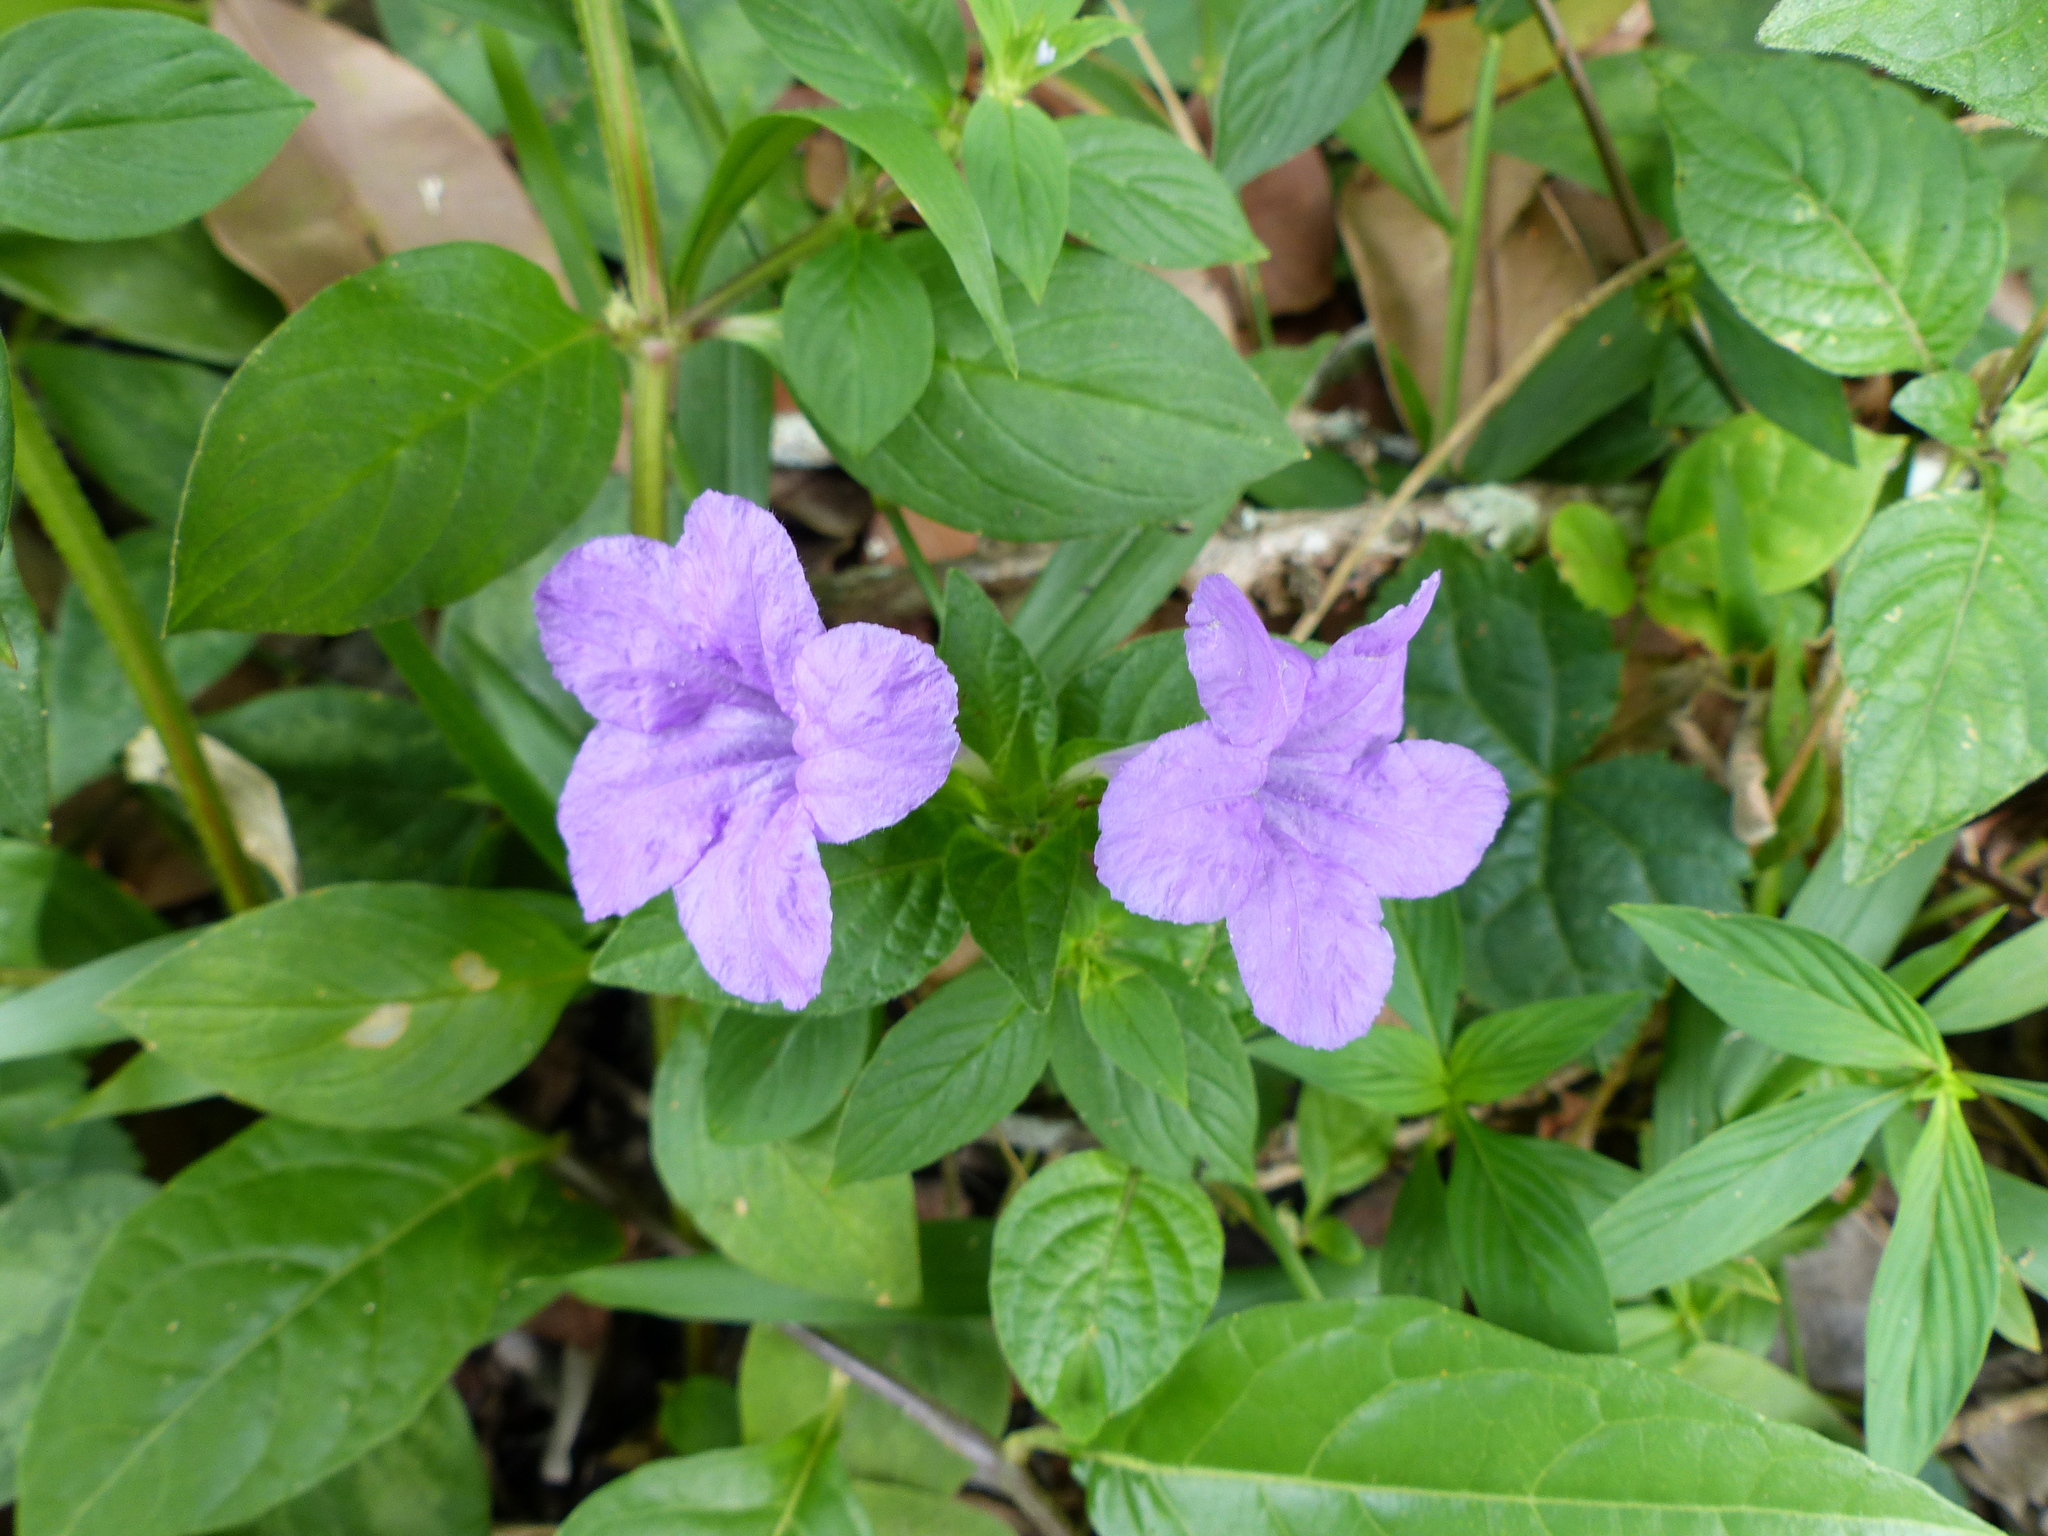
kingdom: Plantae
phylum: Tracheophyta
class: Magnoliopsida
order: Lamiales
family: Acanthaceae
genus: Ruellia
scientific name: Ruellia bahiensis
